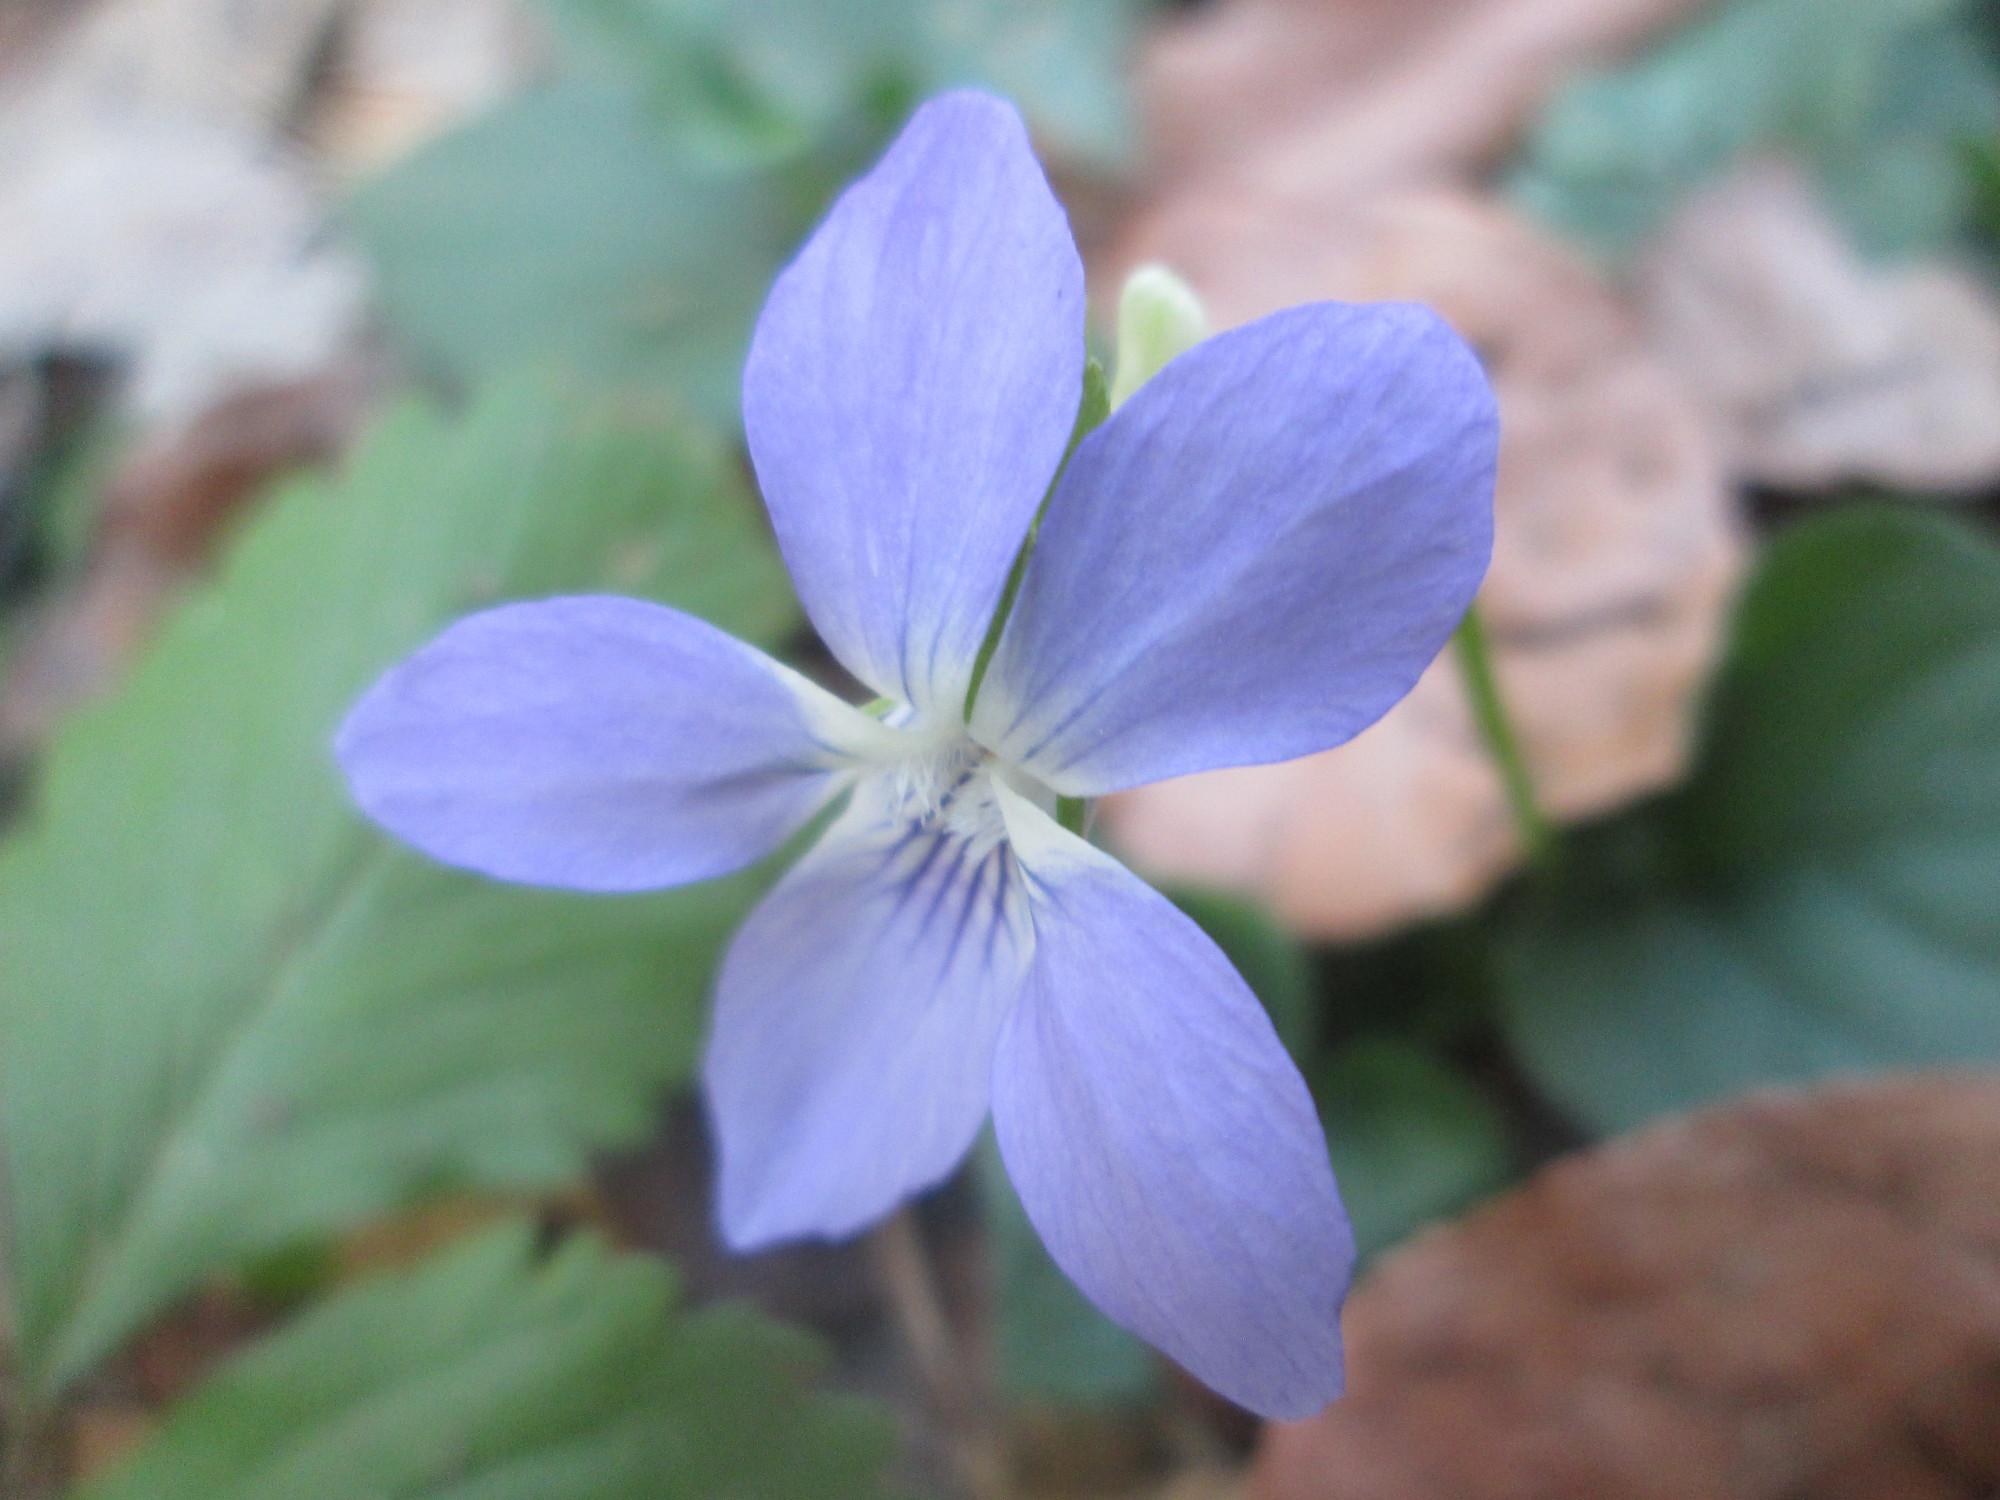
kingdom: Plantae
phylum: Tracheophyta
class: Magnoliopsida
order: Malpighiales
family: Violaceae
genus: Viola
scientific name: Viola riviniana
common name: Common dog-violet
